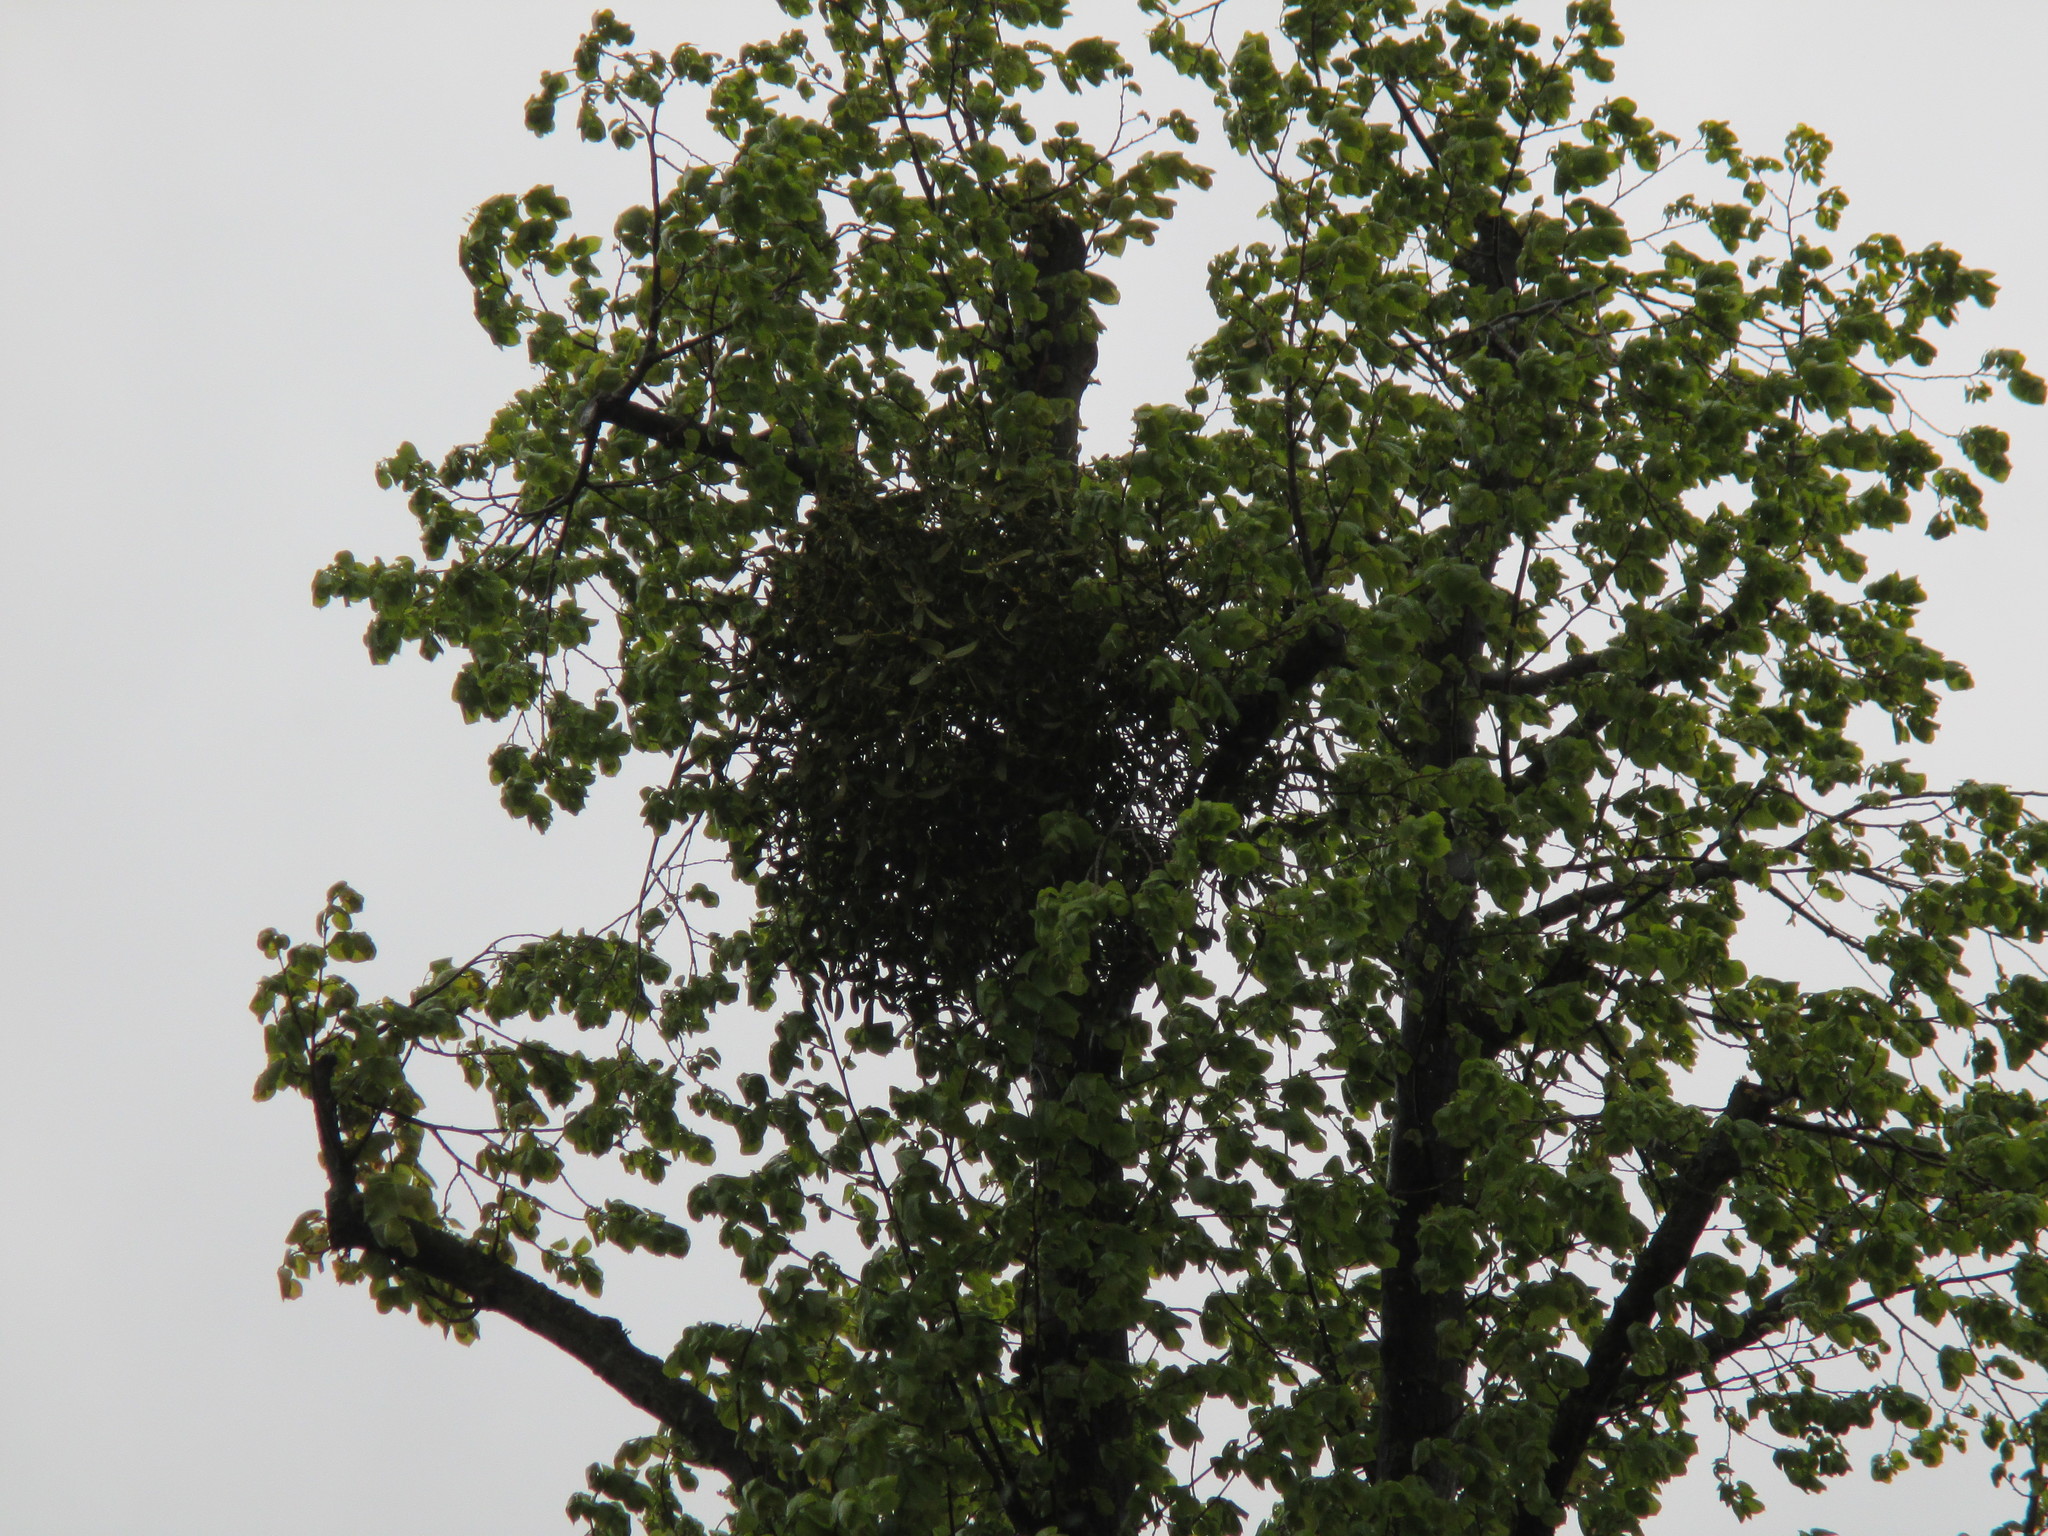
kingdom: Plantae
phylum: Tracheophyta
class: Magnoliopsida
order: Santalales
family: Viscaceae
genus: Viscum
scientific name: Viscum album
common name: Mistletoe
